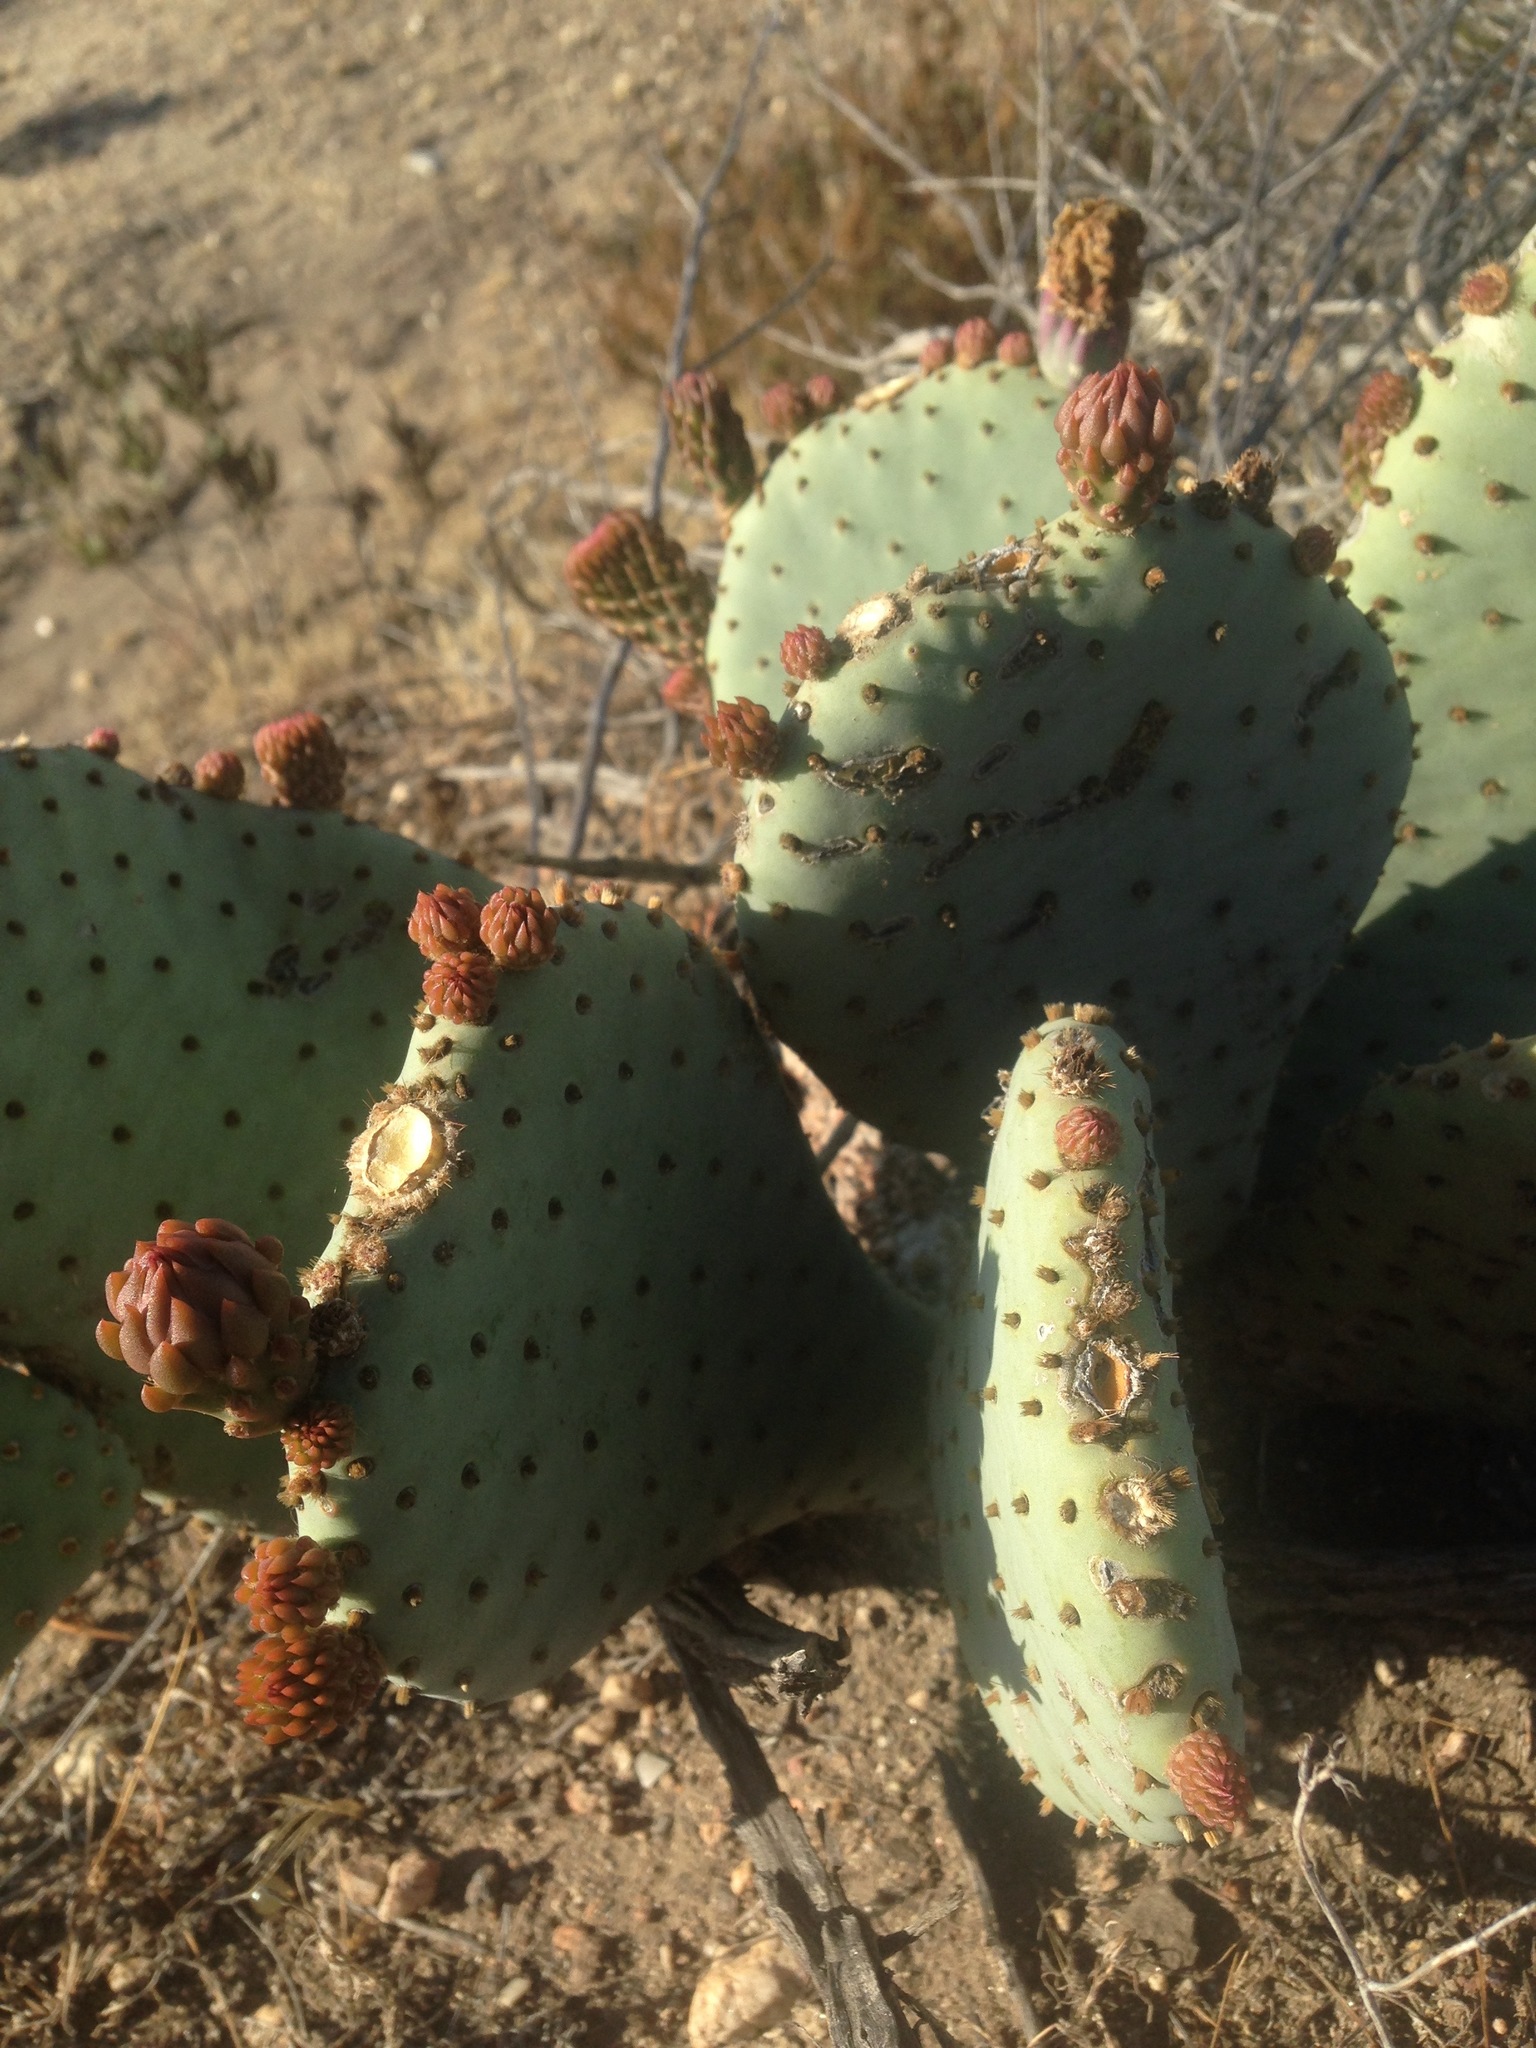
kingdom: Plantae
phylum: Tracheophyta
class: Magnoliopsida
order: Caryophyllales
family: Cactaceae
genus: Opuntia
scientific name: Opuntia basilaris
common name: Beavertail prickly-pear
